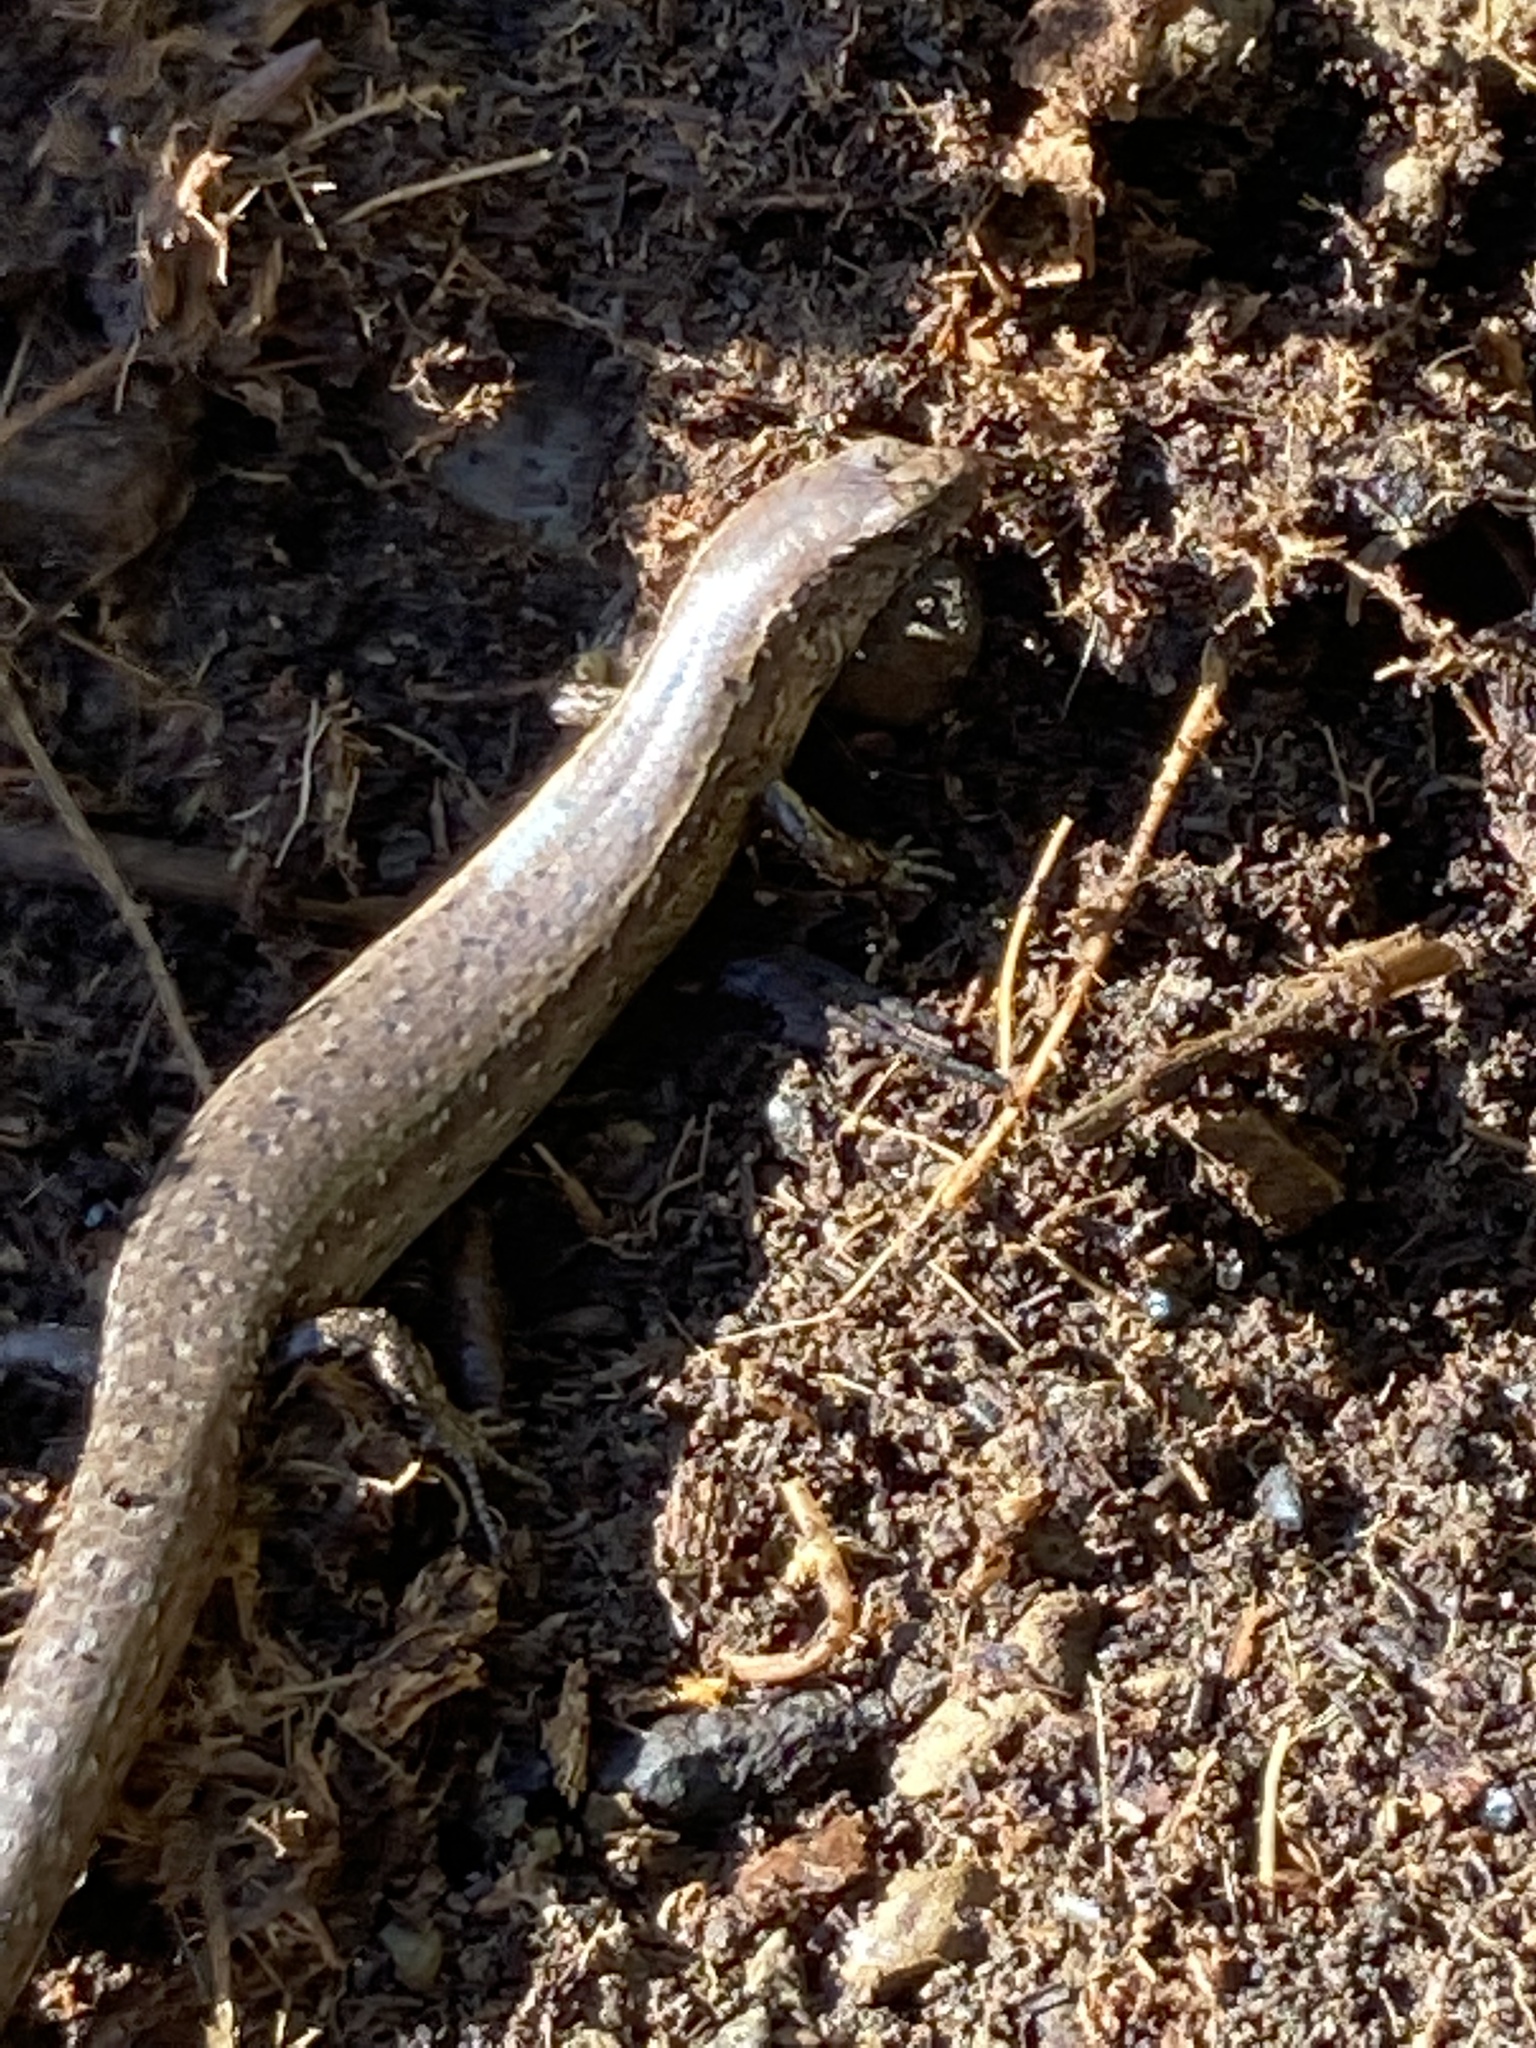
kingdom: Animalia
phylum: Chordata
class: Squamata
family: Scincidae
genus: Oligosoma
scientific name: Oligosoma aeneum
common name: Copper skink
